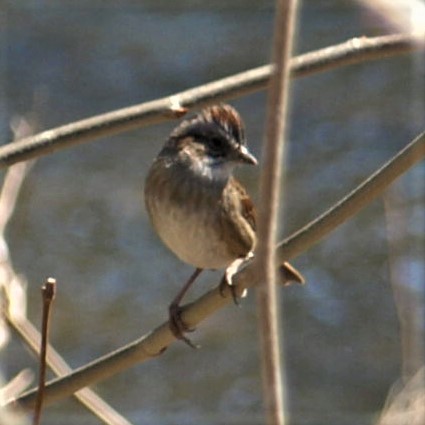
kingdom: Animalia
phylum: Chordata
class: Aves
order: Passeriformes
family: Passerellidae
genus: Melospiza
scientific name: Melospiza georgiana
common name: Swamp sparrow
